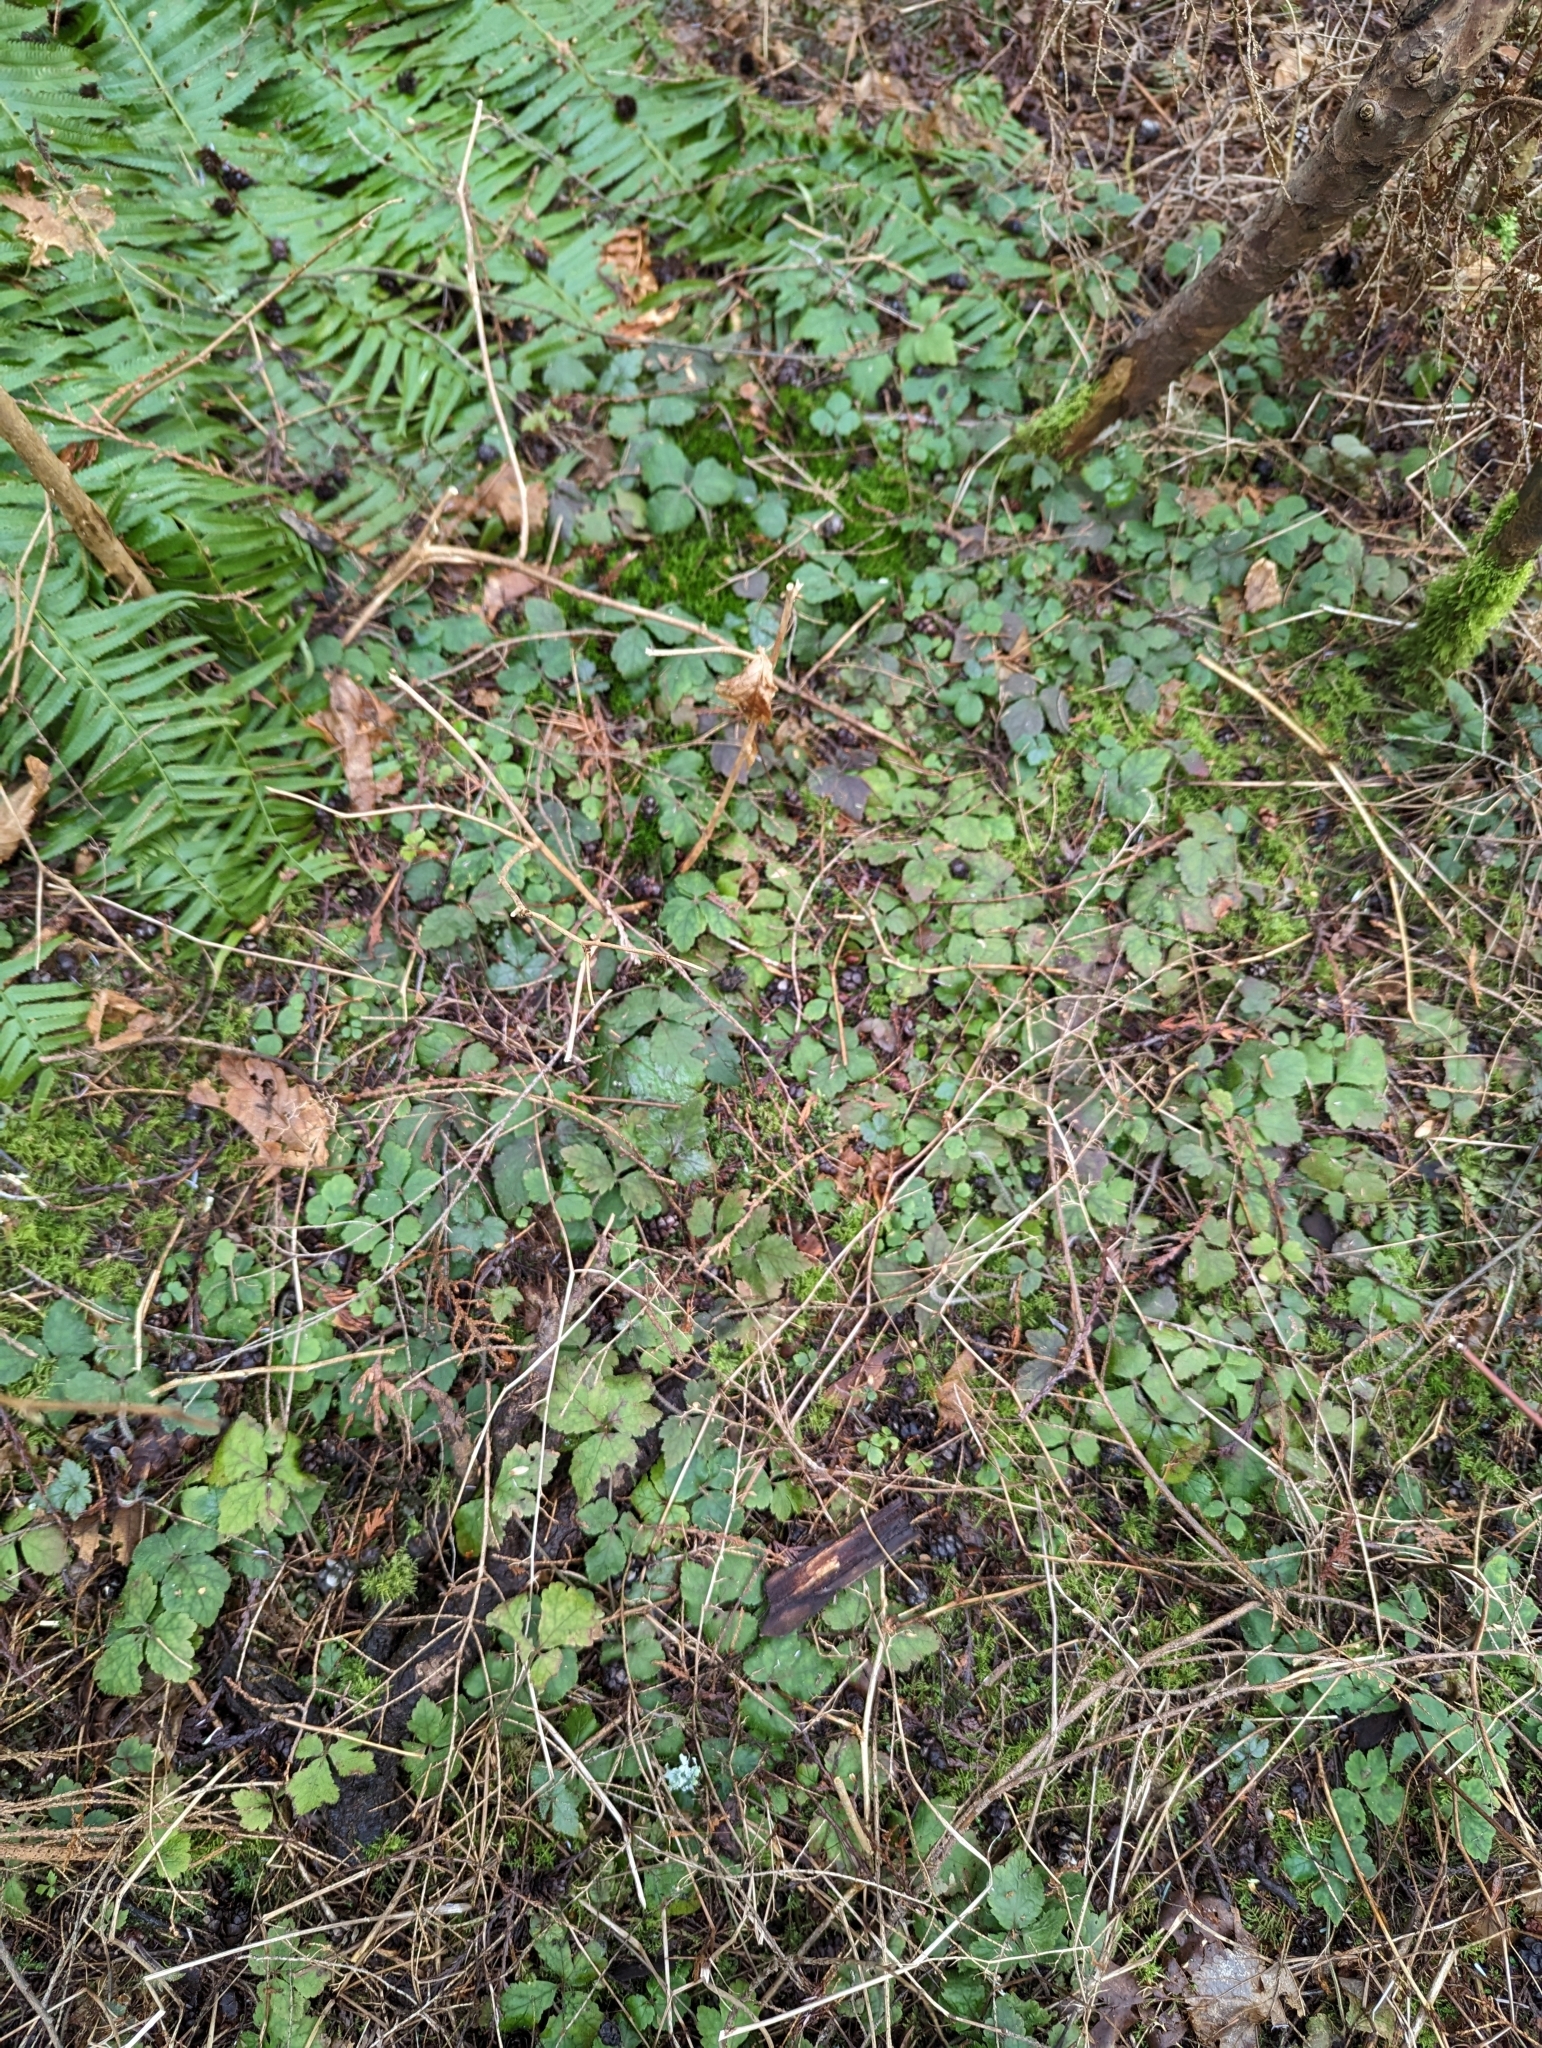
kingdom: Plantae
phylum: Tracheophyta
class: Magnoliopsida
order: Saxifragales
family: Saxifragaceae
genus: Tiarella
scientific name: Tiarella trifoliata
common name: Sugar-scoop
